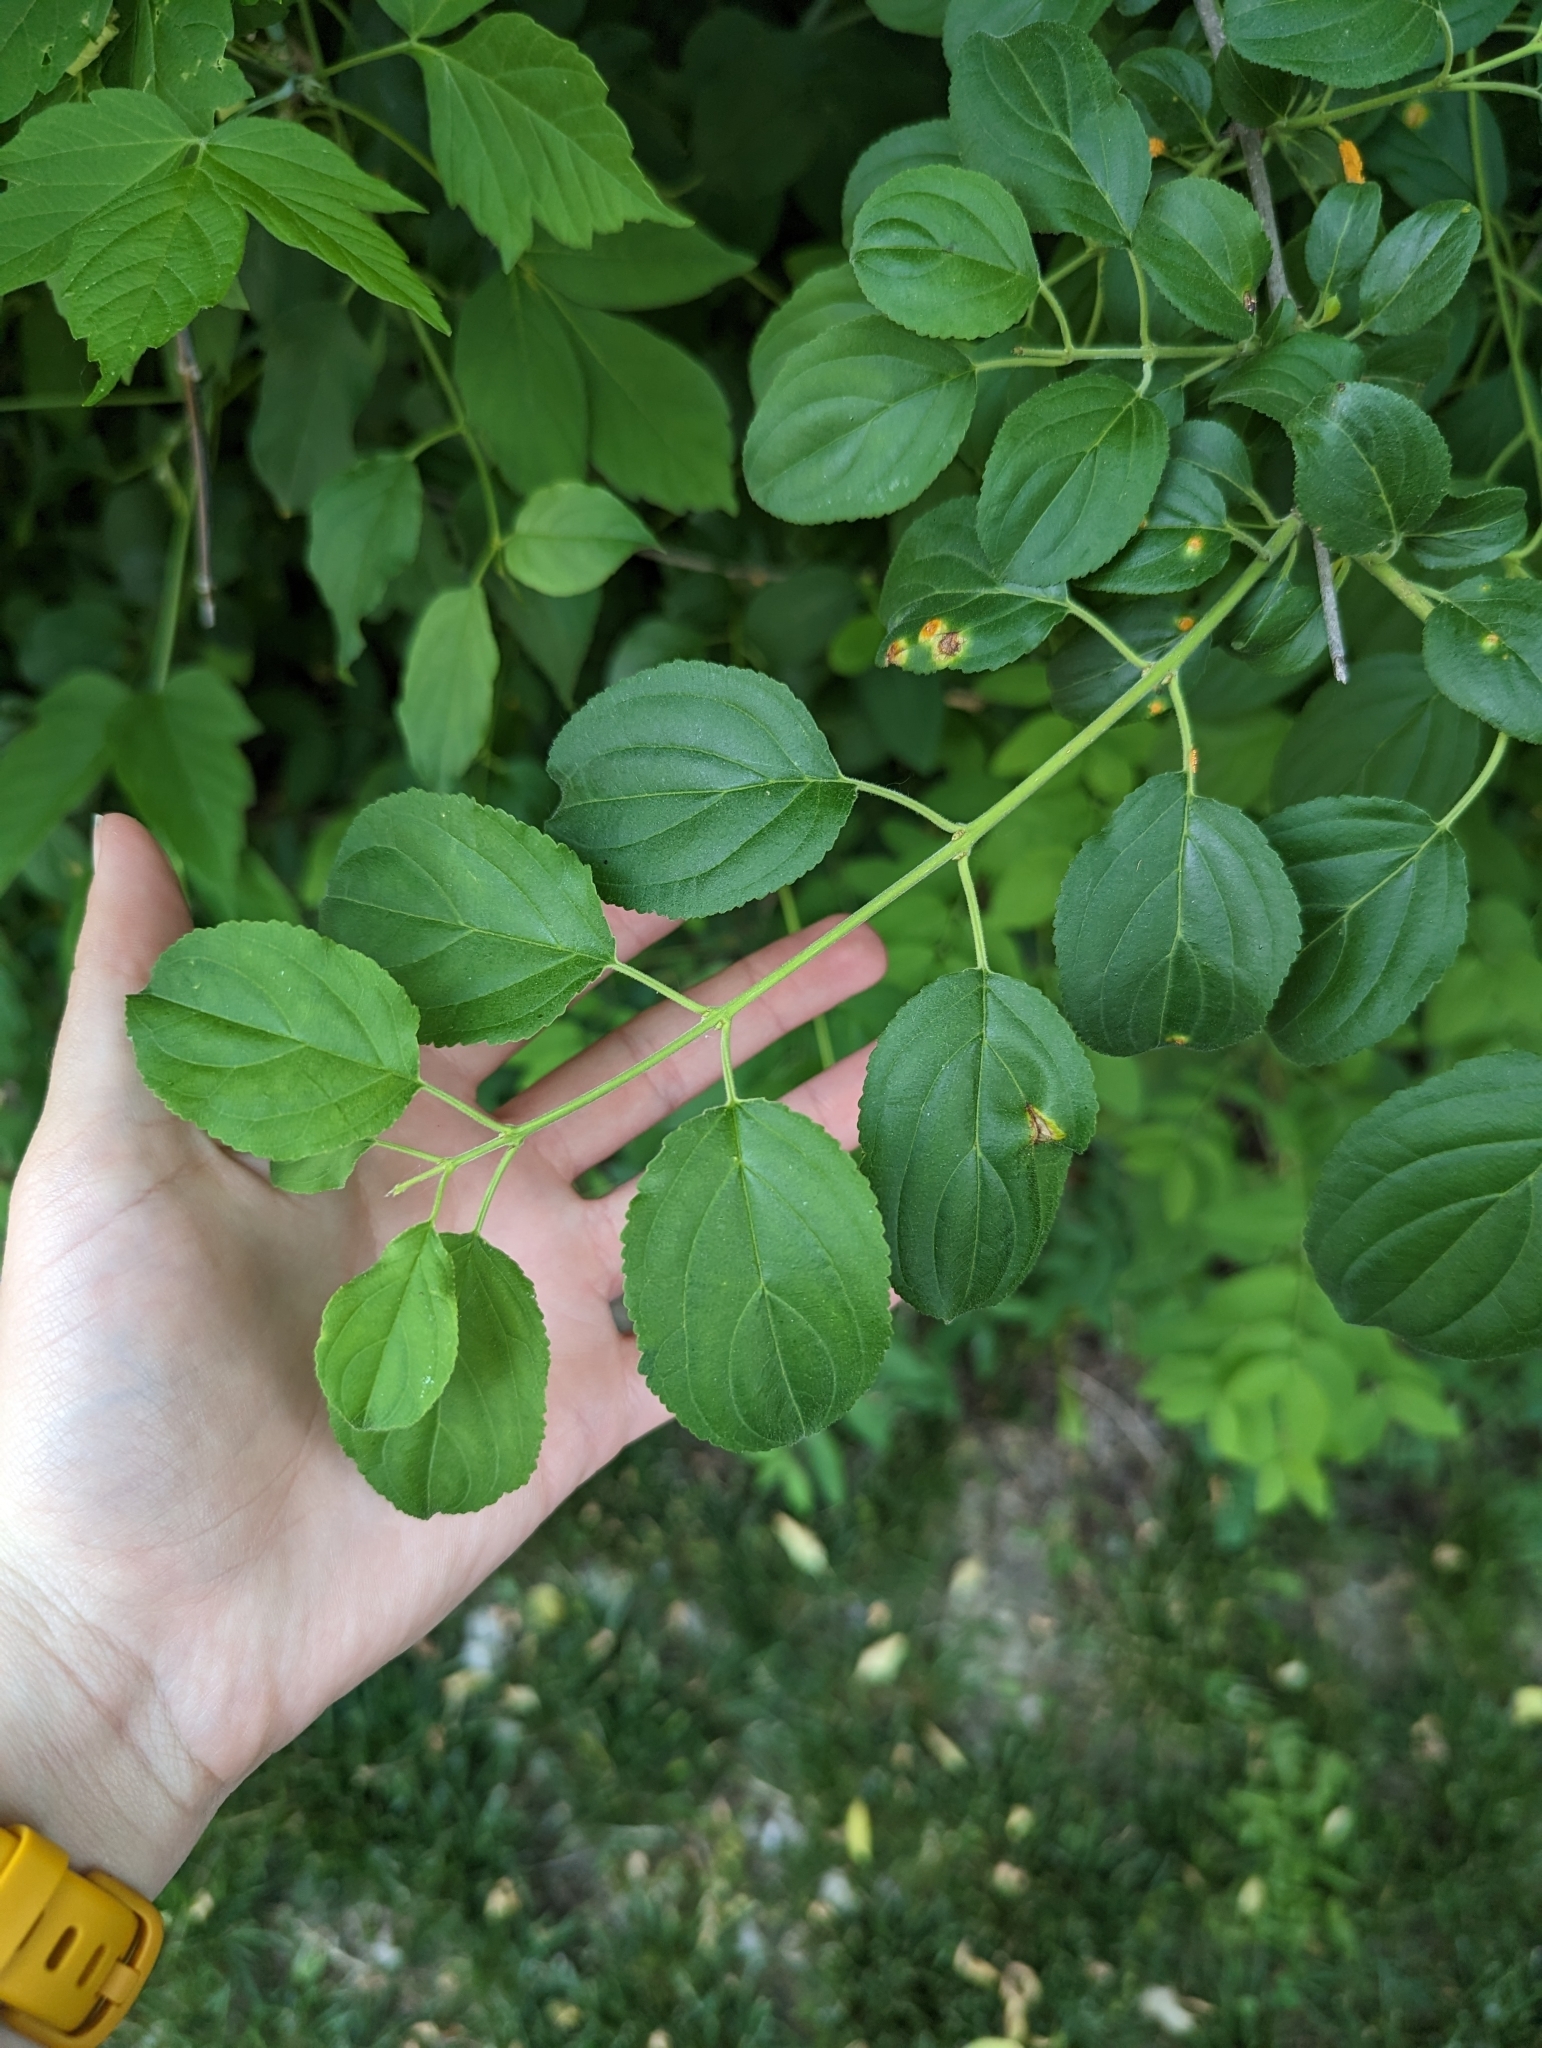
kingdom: Plantae
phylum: Tracheophyta
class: Magnoliopsida
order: Rosales
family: Rhamnaceae
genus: Rhamnus
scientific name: Rhamnus cathartica
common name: Common buckthorn
